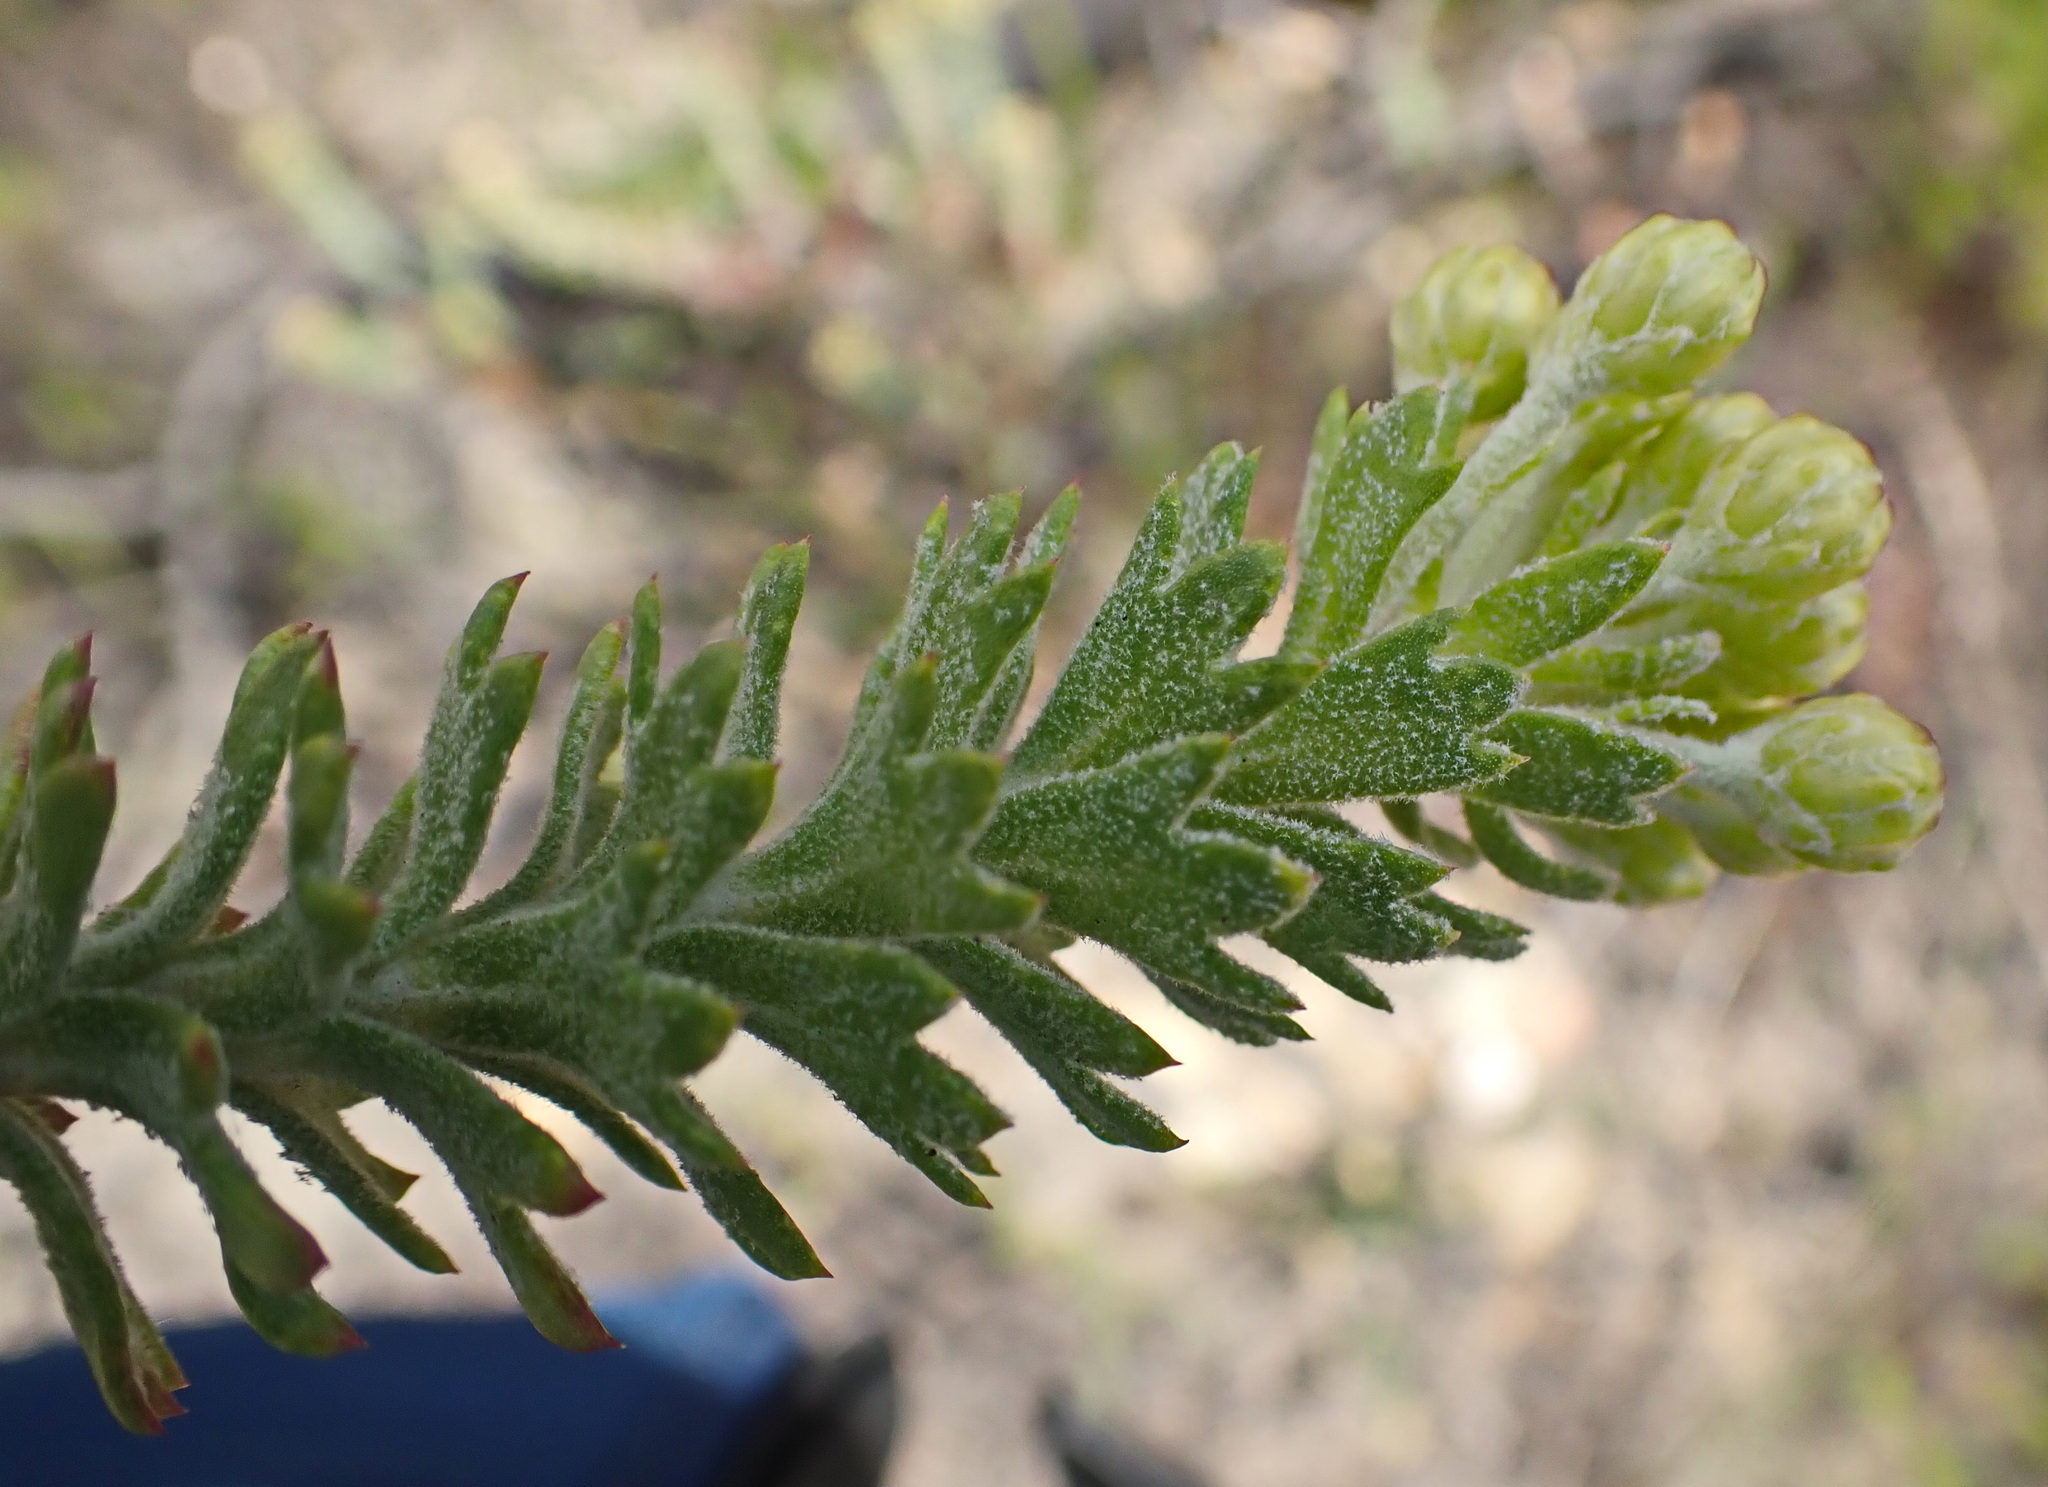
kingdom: Plantae
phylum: Tracheophyta
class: Magnoliopsida
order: Asterales
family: Asteraceae
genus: Athanasia
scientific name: Athanasia trifurcata
